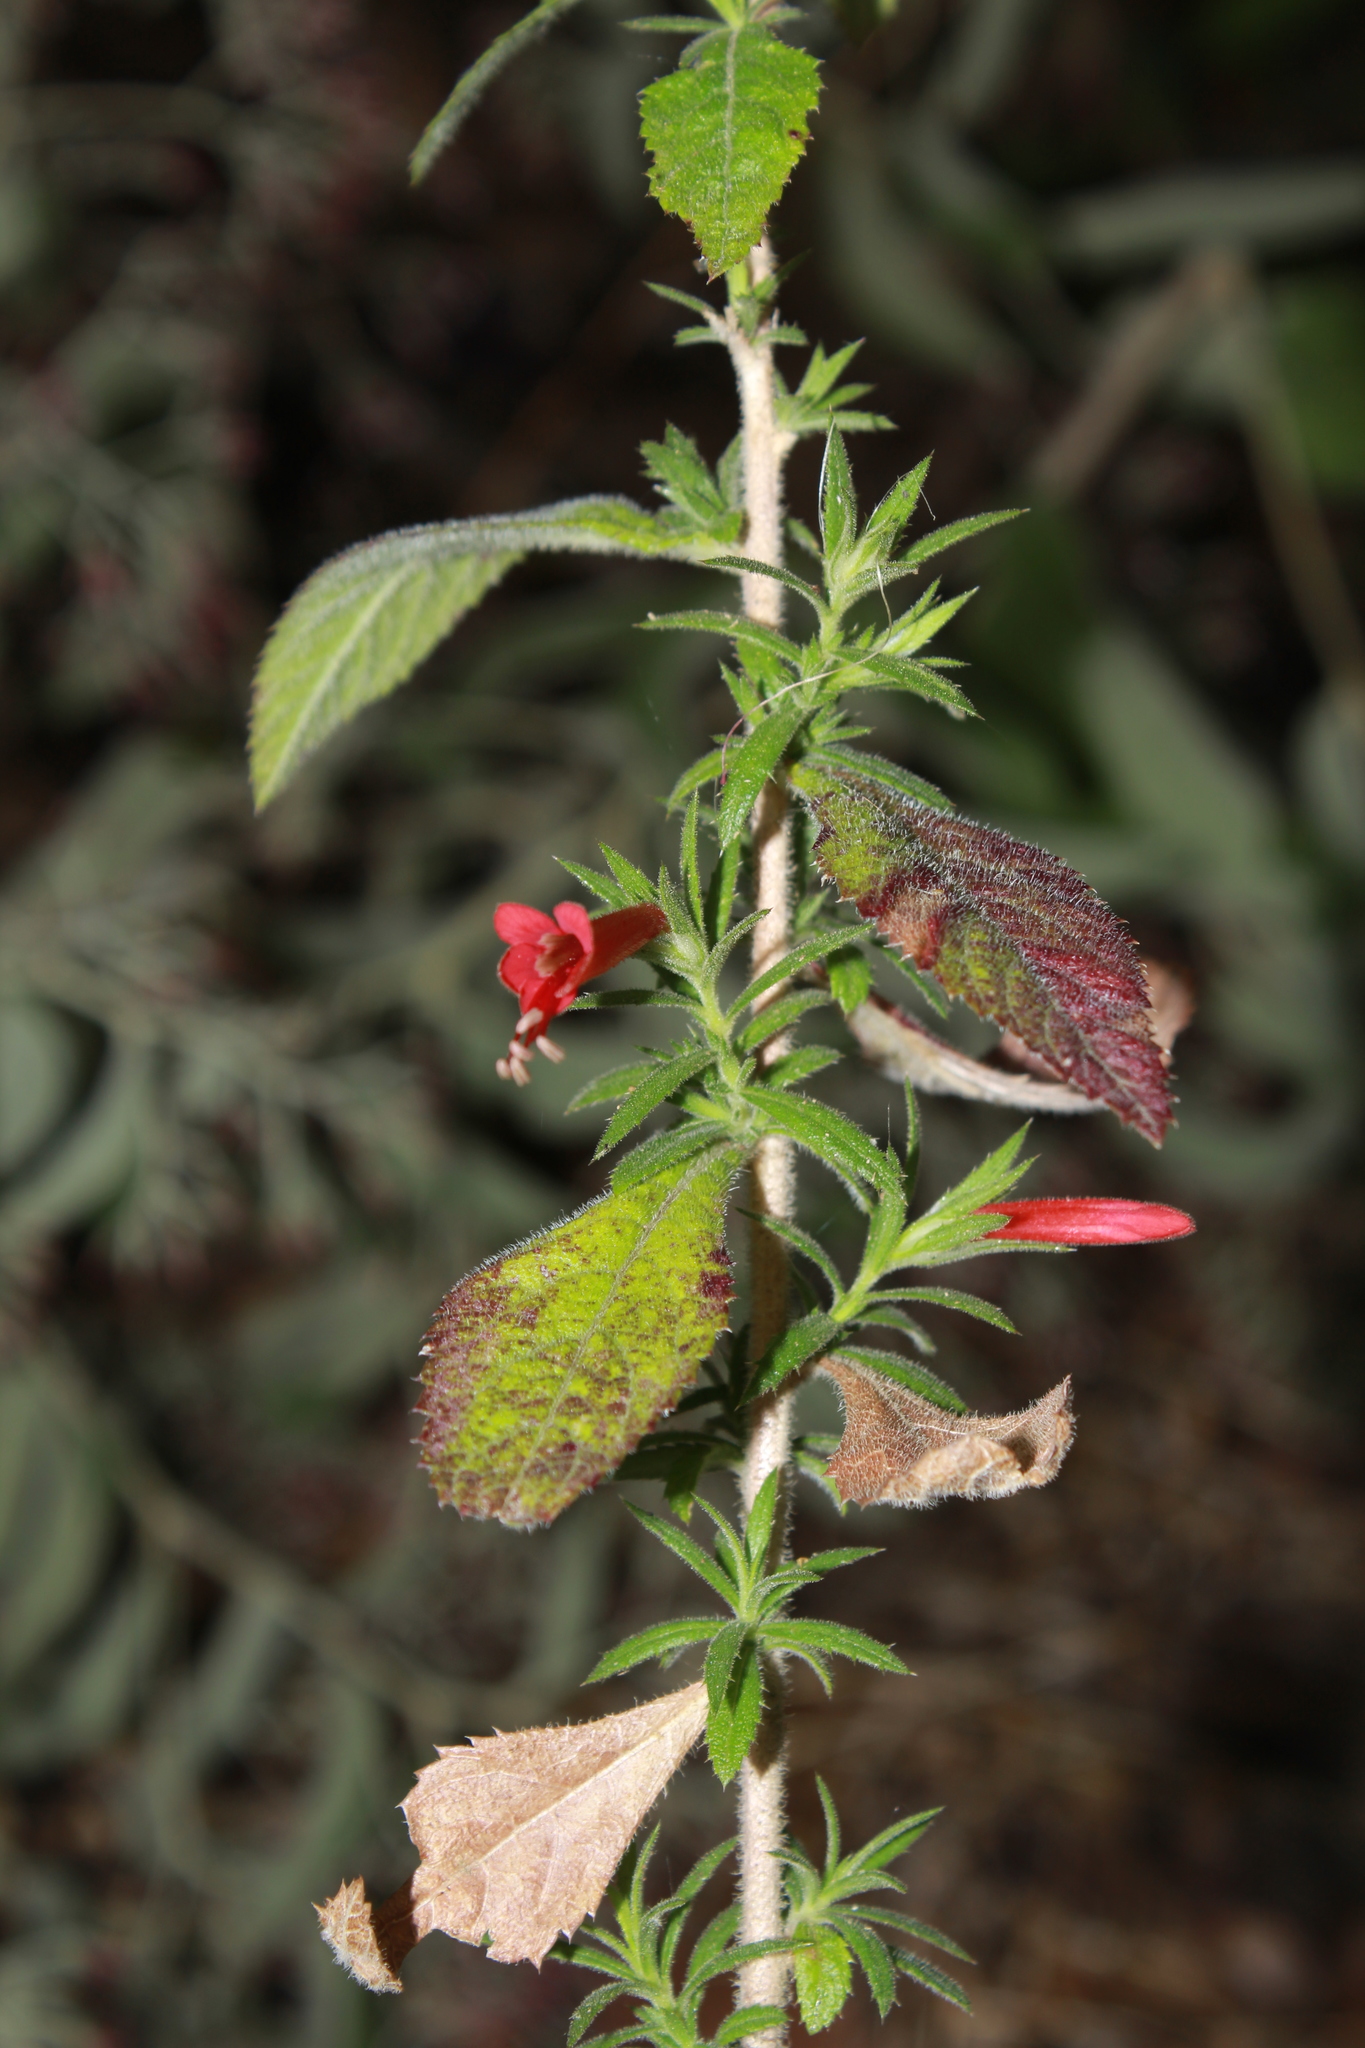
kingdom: Plantae
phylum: Tracheophyta
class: Magnoliopsida
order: Ericales
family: Polemoniaceae
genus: Loeselia
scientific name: Loeselia mexicana
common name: Mexican false calico
